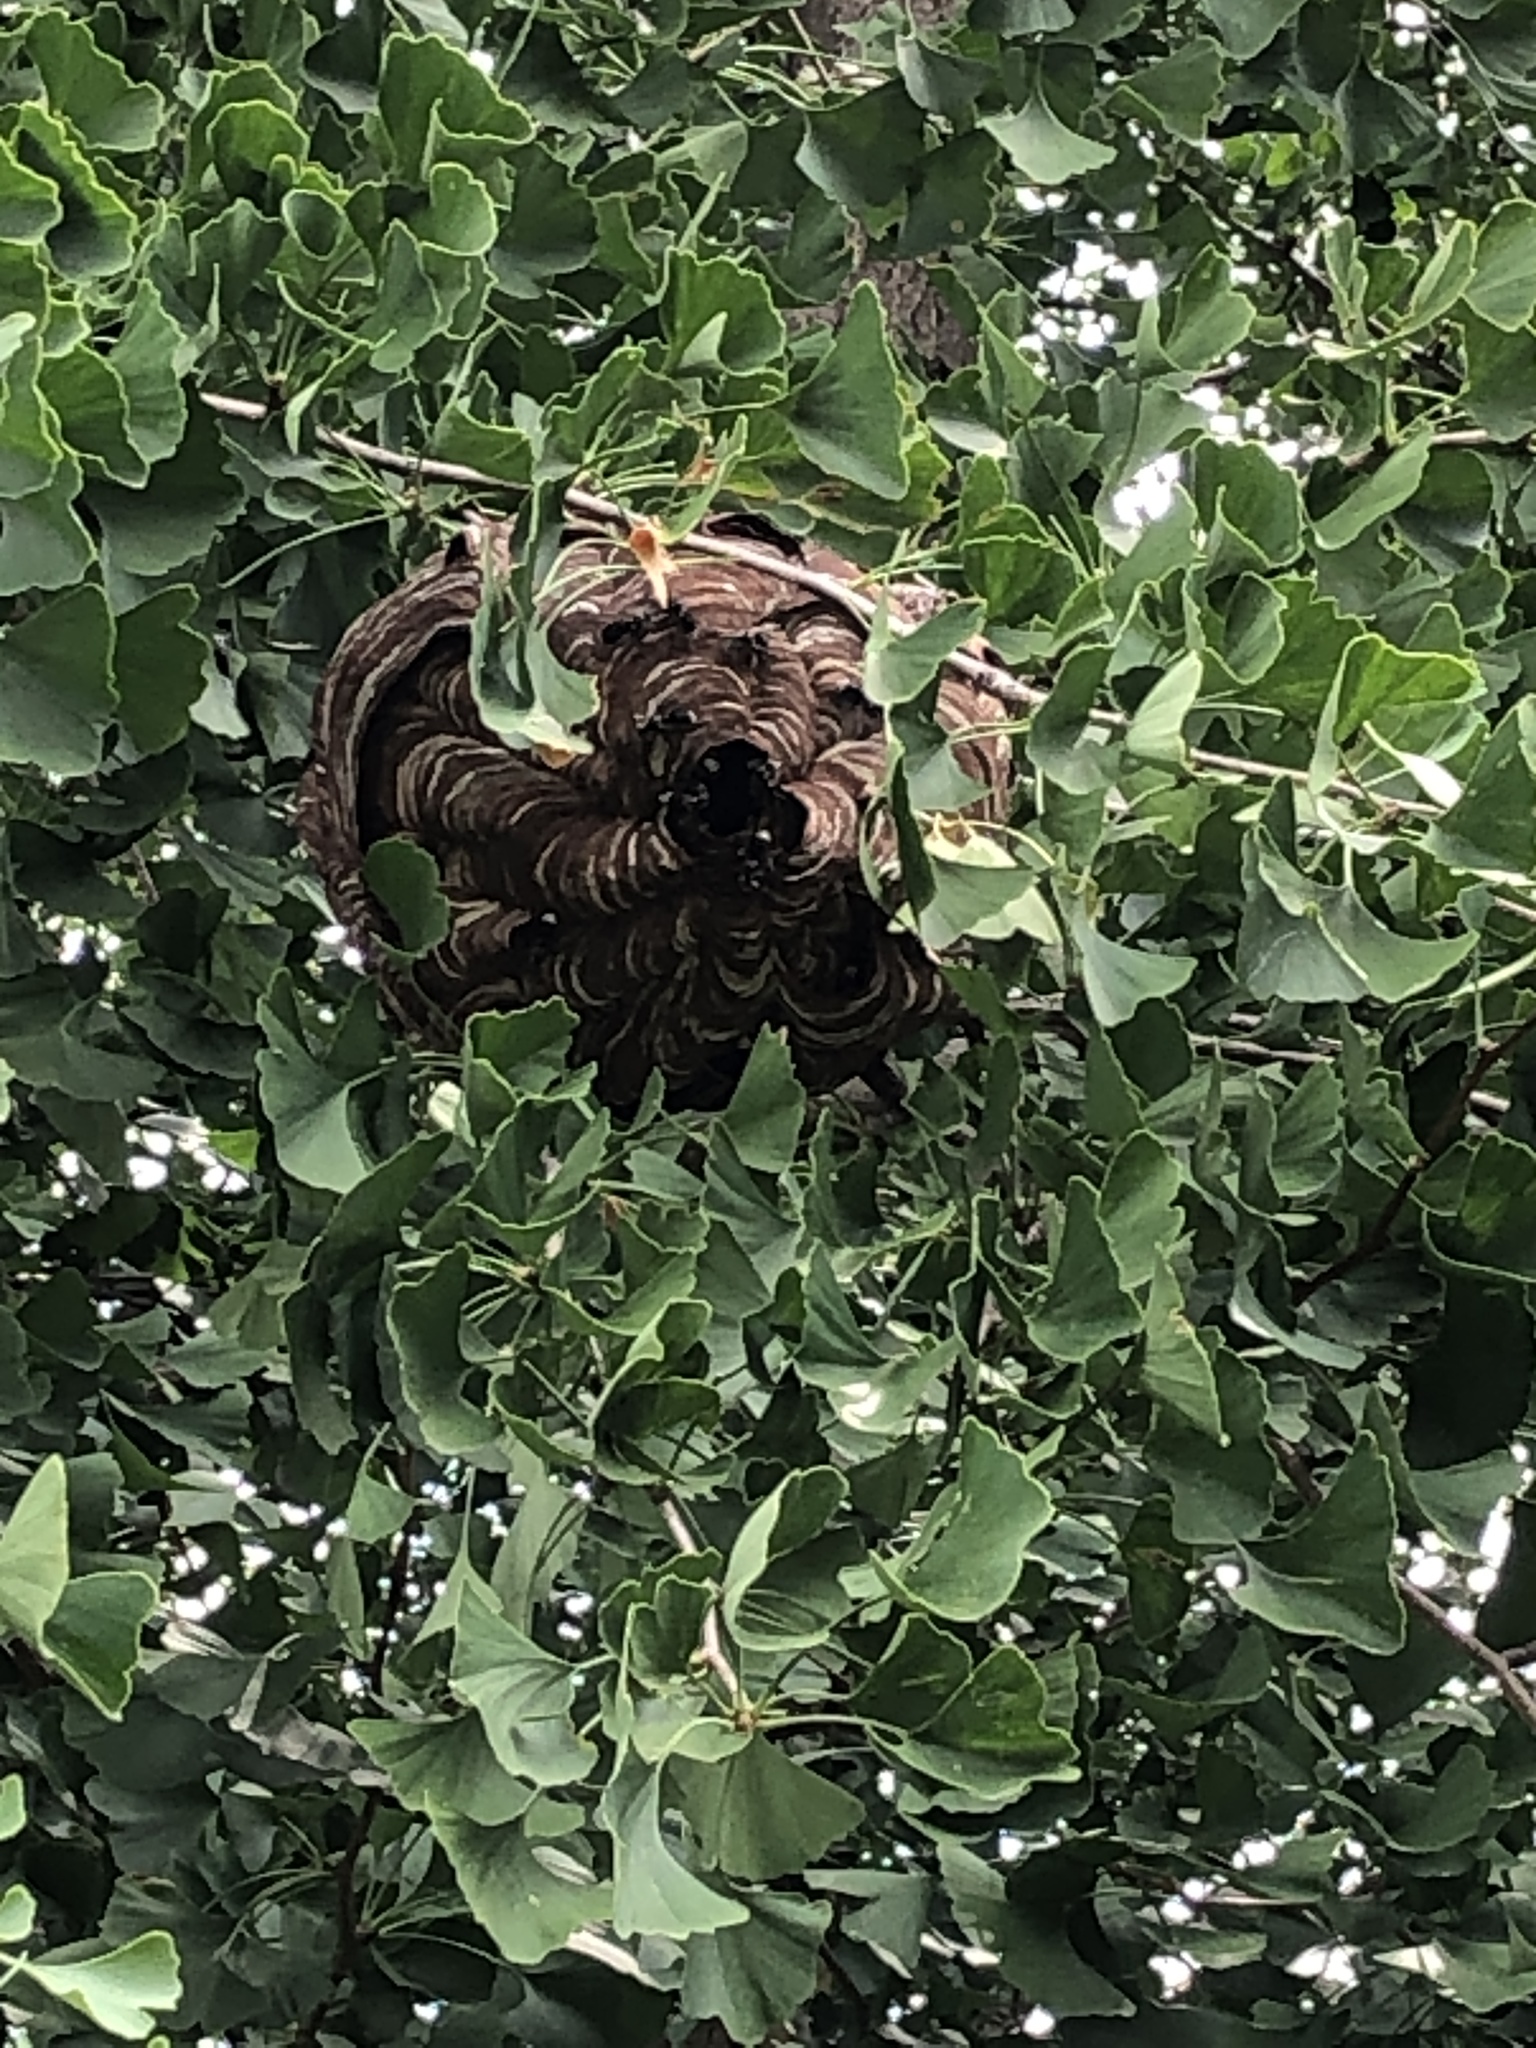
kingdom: Animalia
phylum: Arthropoda
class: Insecta
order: Hymenoptera
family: Vespidae
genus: Dolichovespula
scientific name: Dolichovespula maculata
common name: Bald-faced hornet
